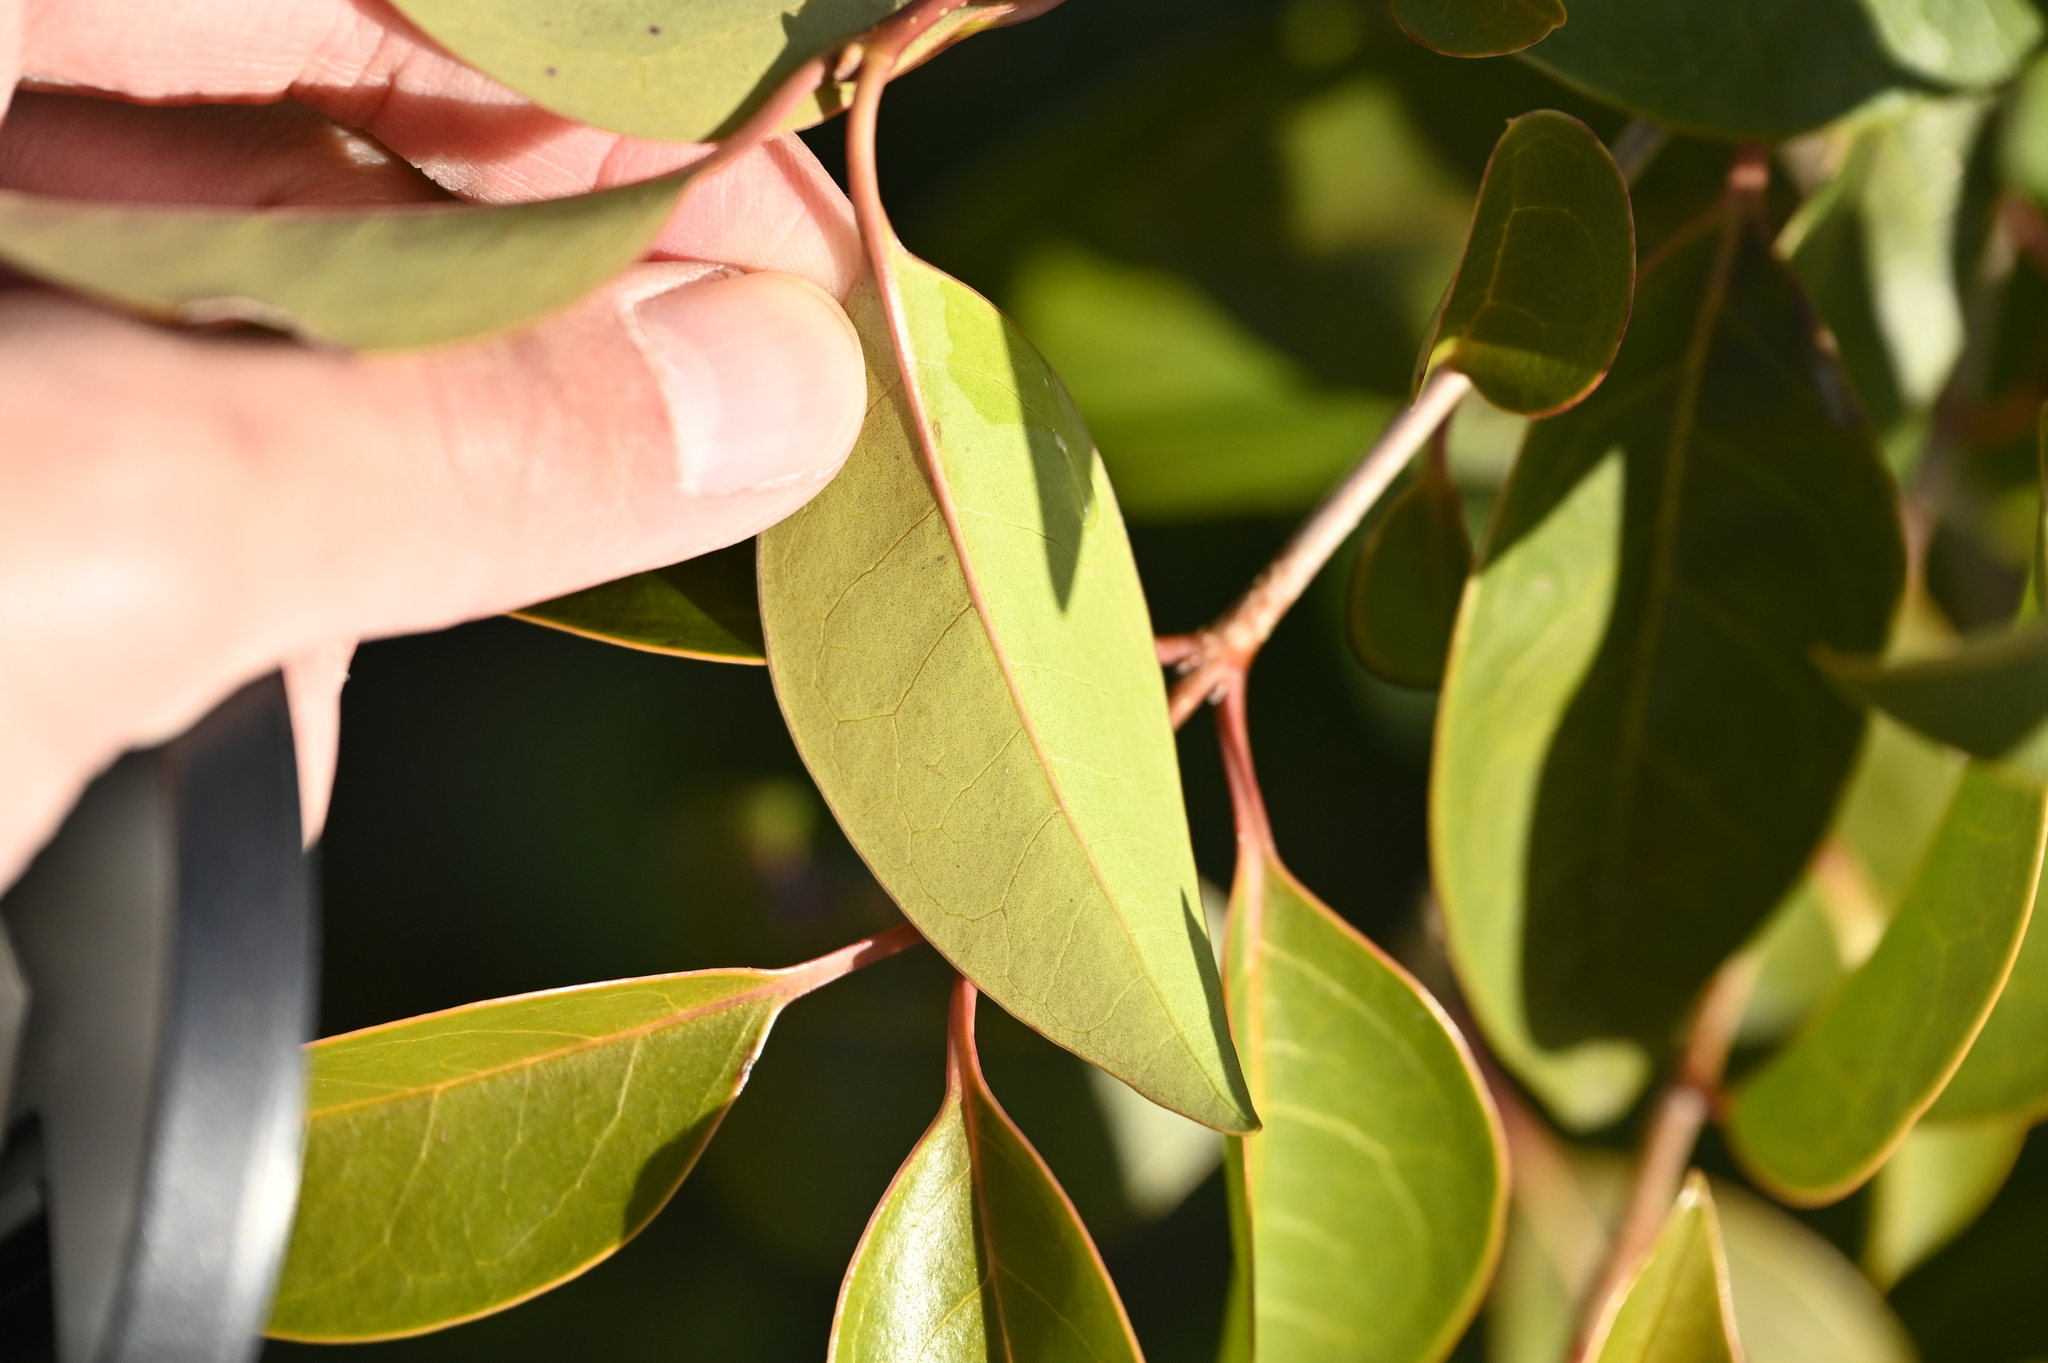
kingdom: Plantae
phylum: Tracheophyta
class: Magnoliopsida
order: Lamiales
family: Oleaceae
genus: Ligustrum
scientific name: Ligustrum lucidum
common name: Glossy privet
